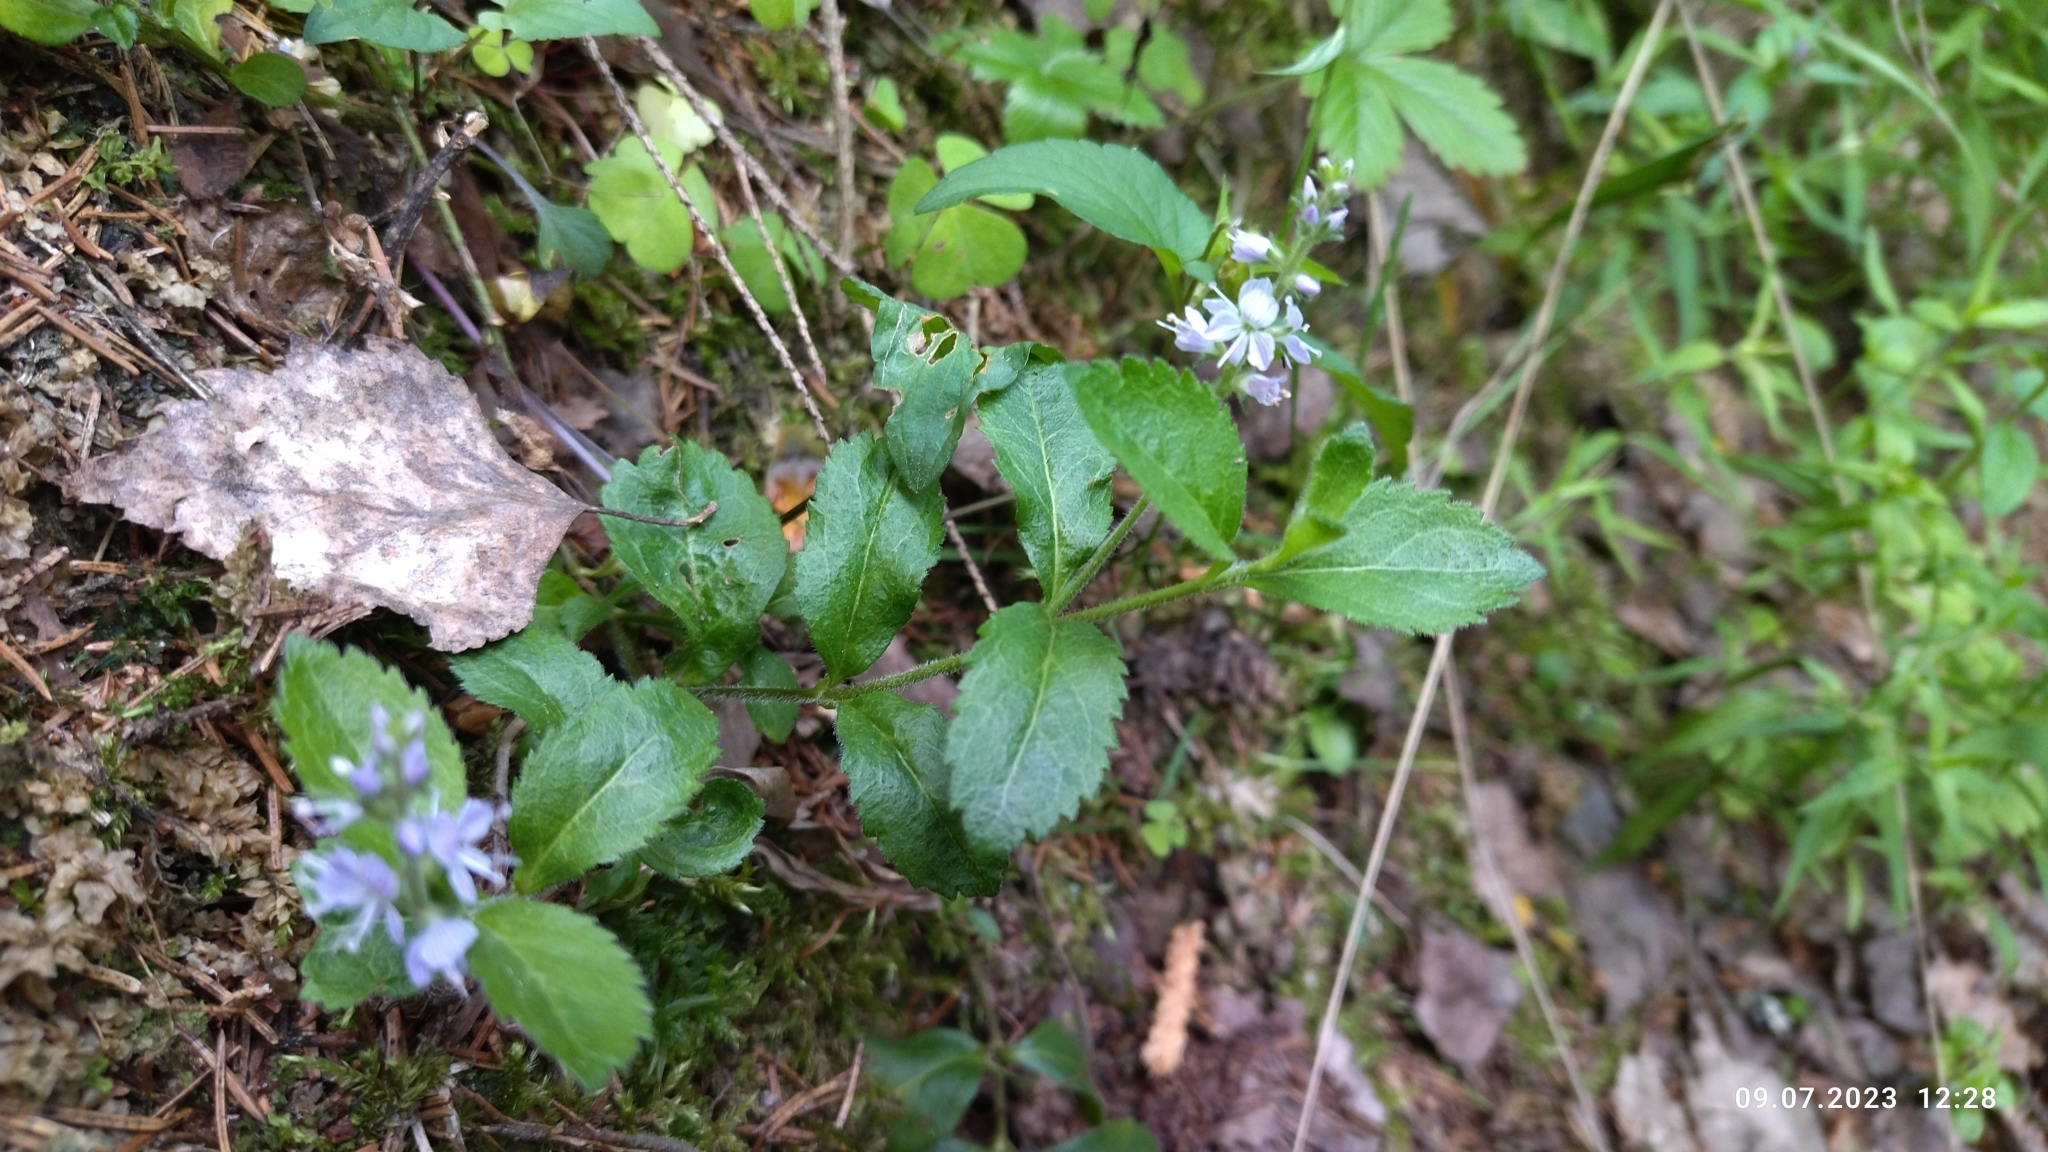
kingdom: Plantae
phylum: Tracheophyta
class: Magnoliopsida
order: Lamiales
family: Plantaginaceae
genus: Veronica
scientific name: Veronica officinalis
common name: Common speedwell
